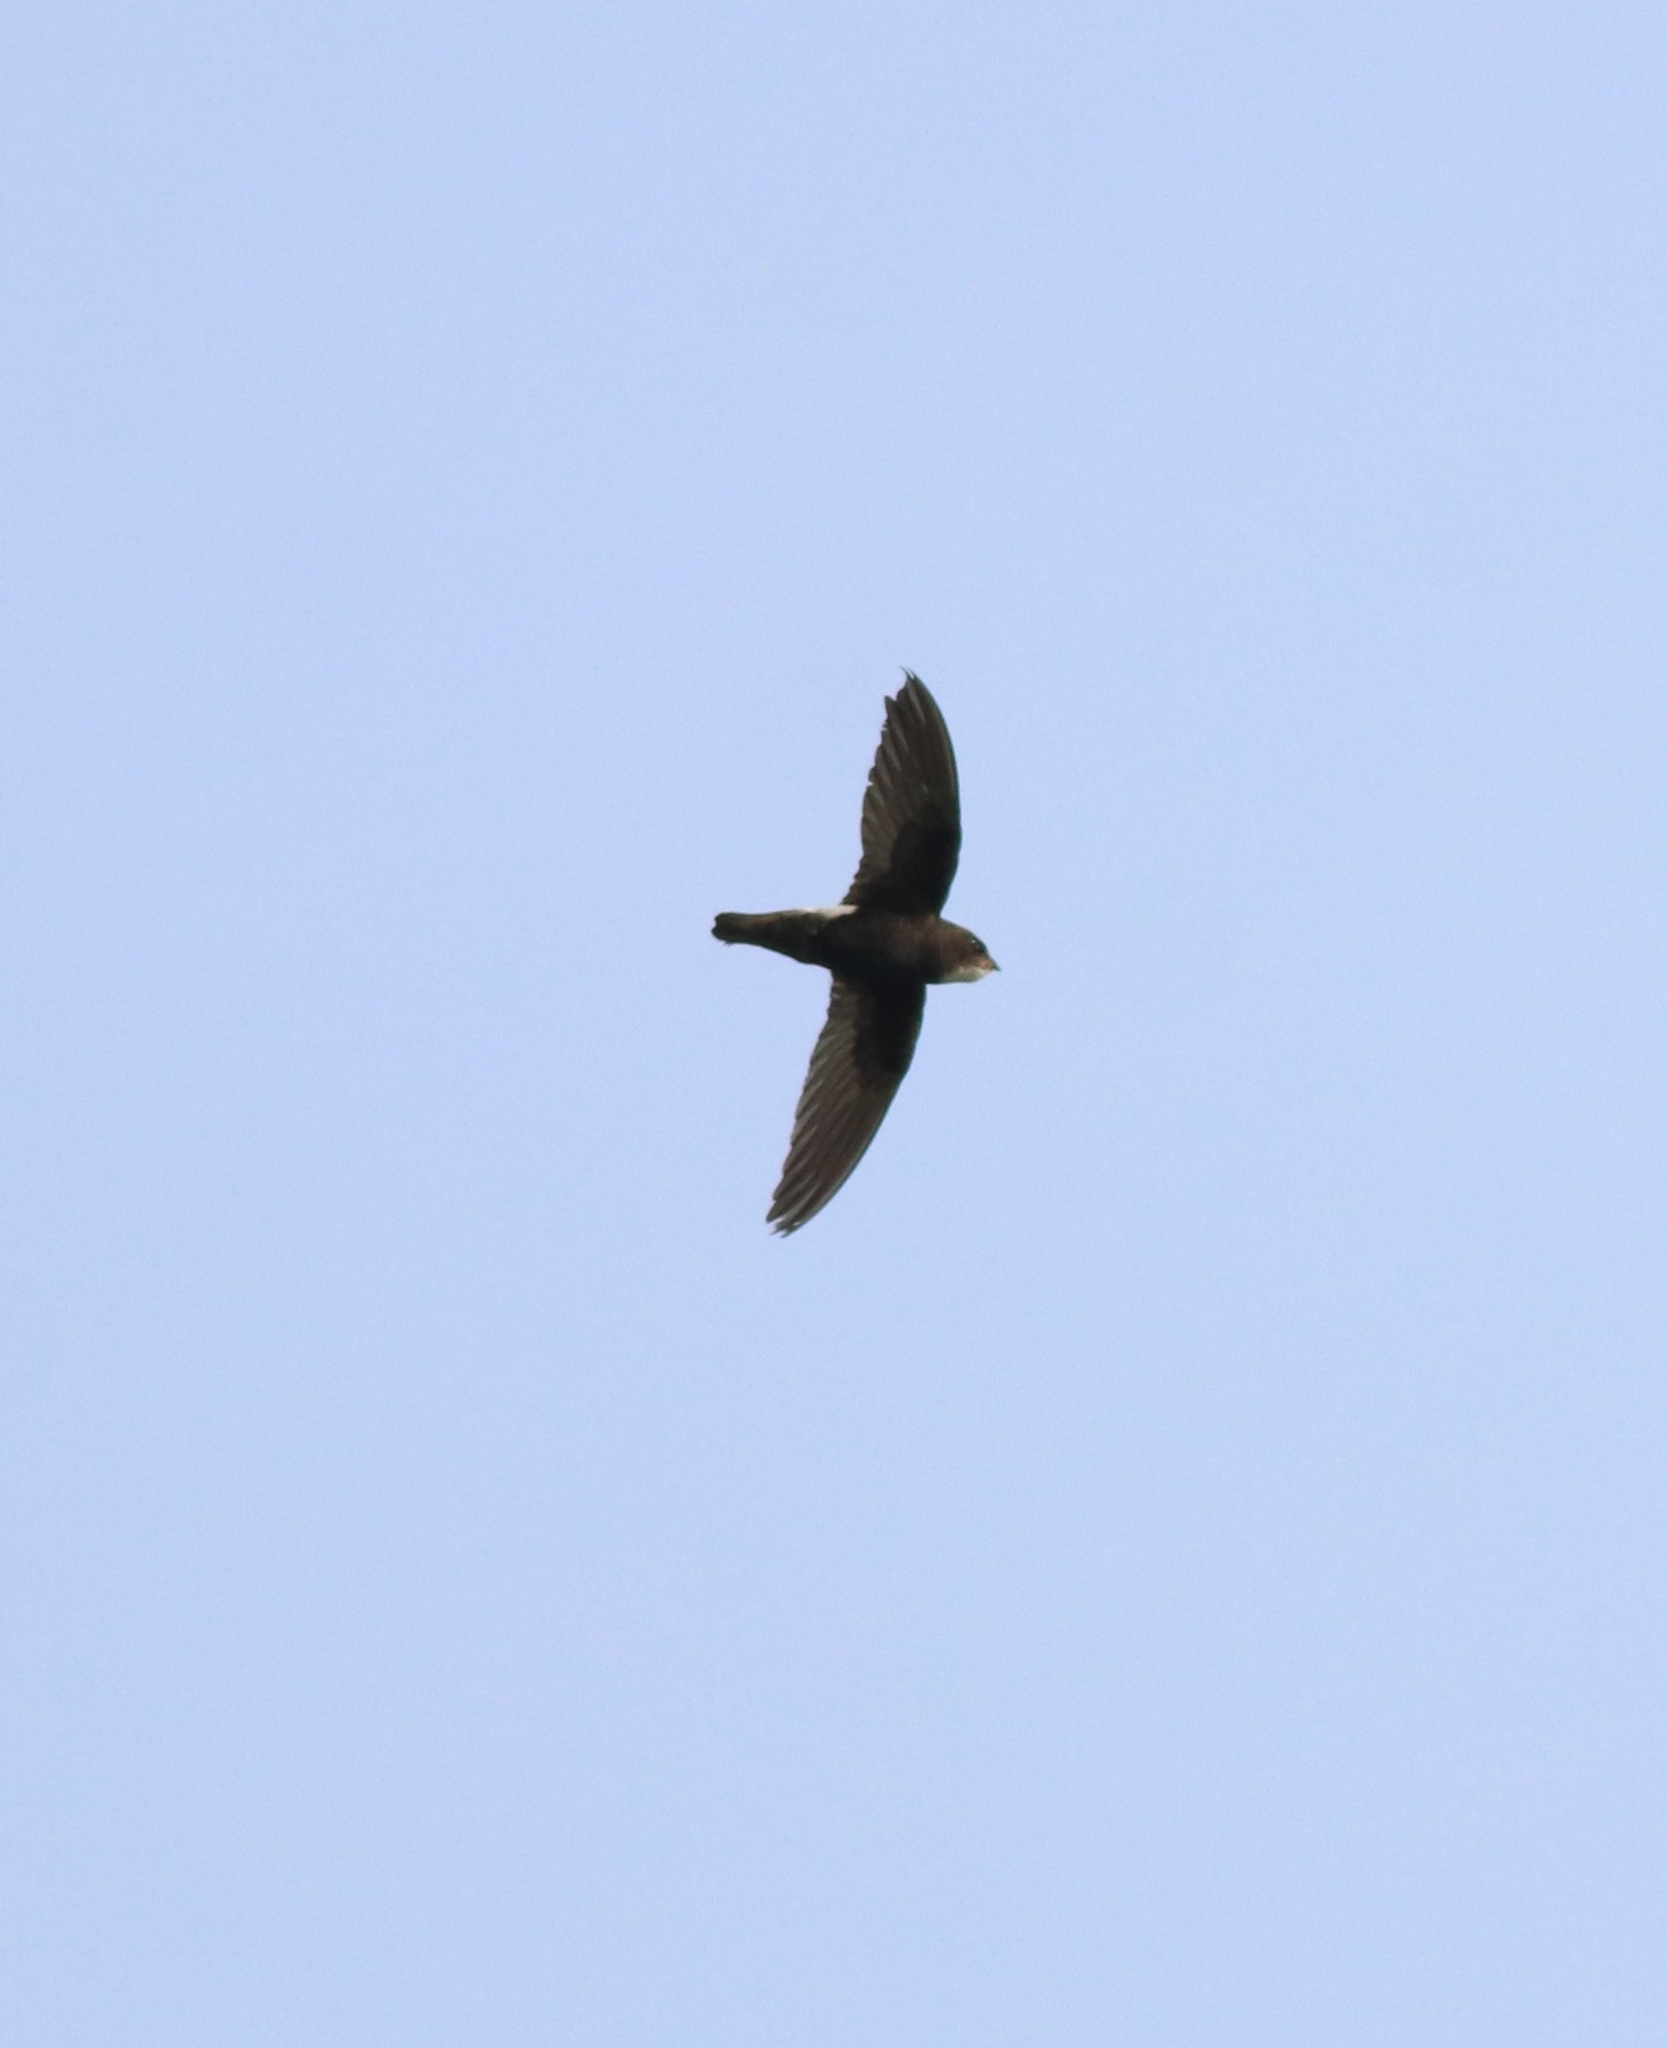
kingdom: Animalia
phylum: Chordata
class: Aves
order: Apodiformes
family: Apodidae
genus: Apus
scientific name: Apus affinis
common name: Little swift
